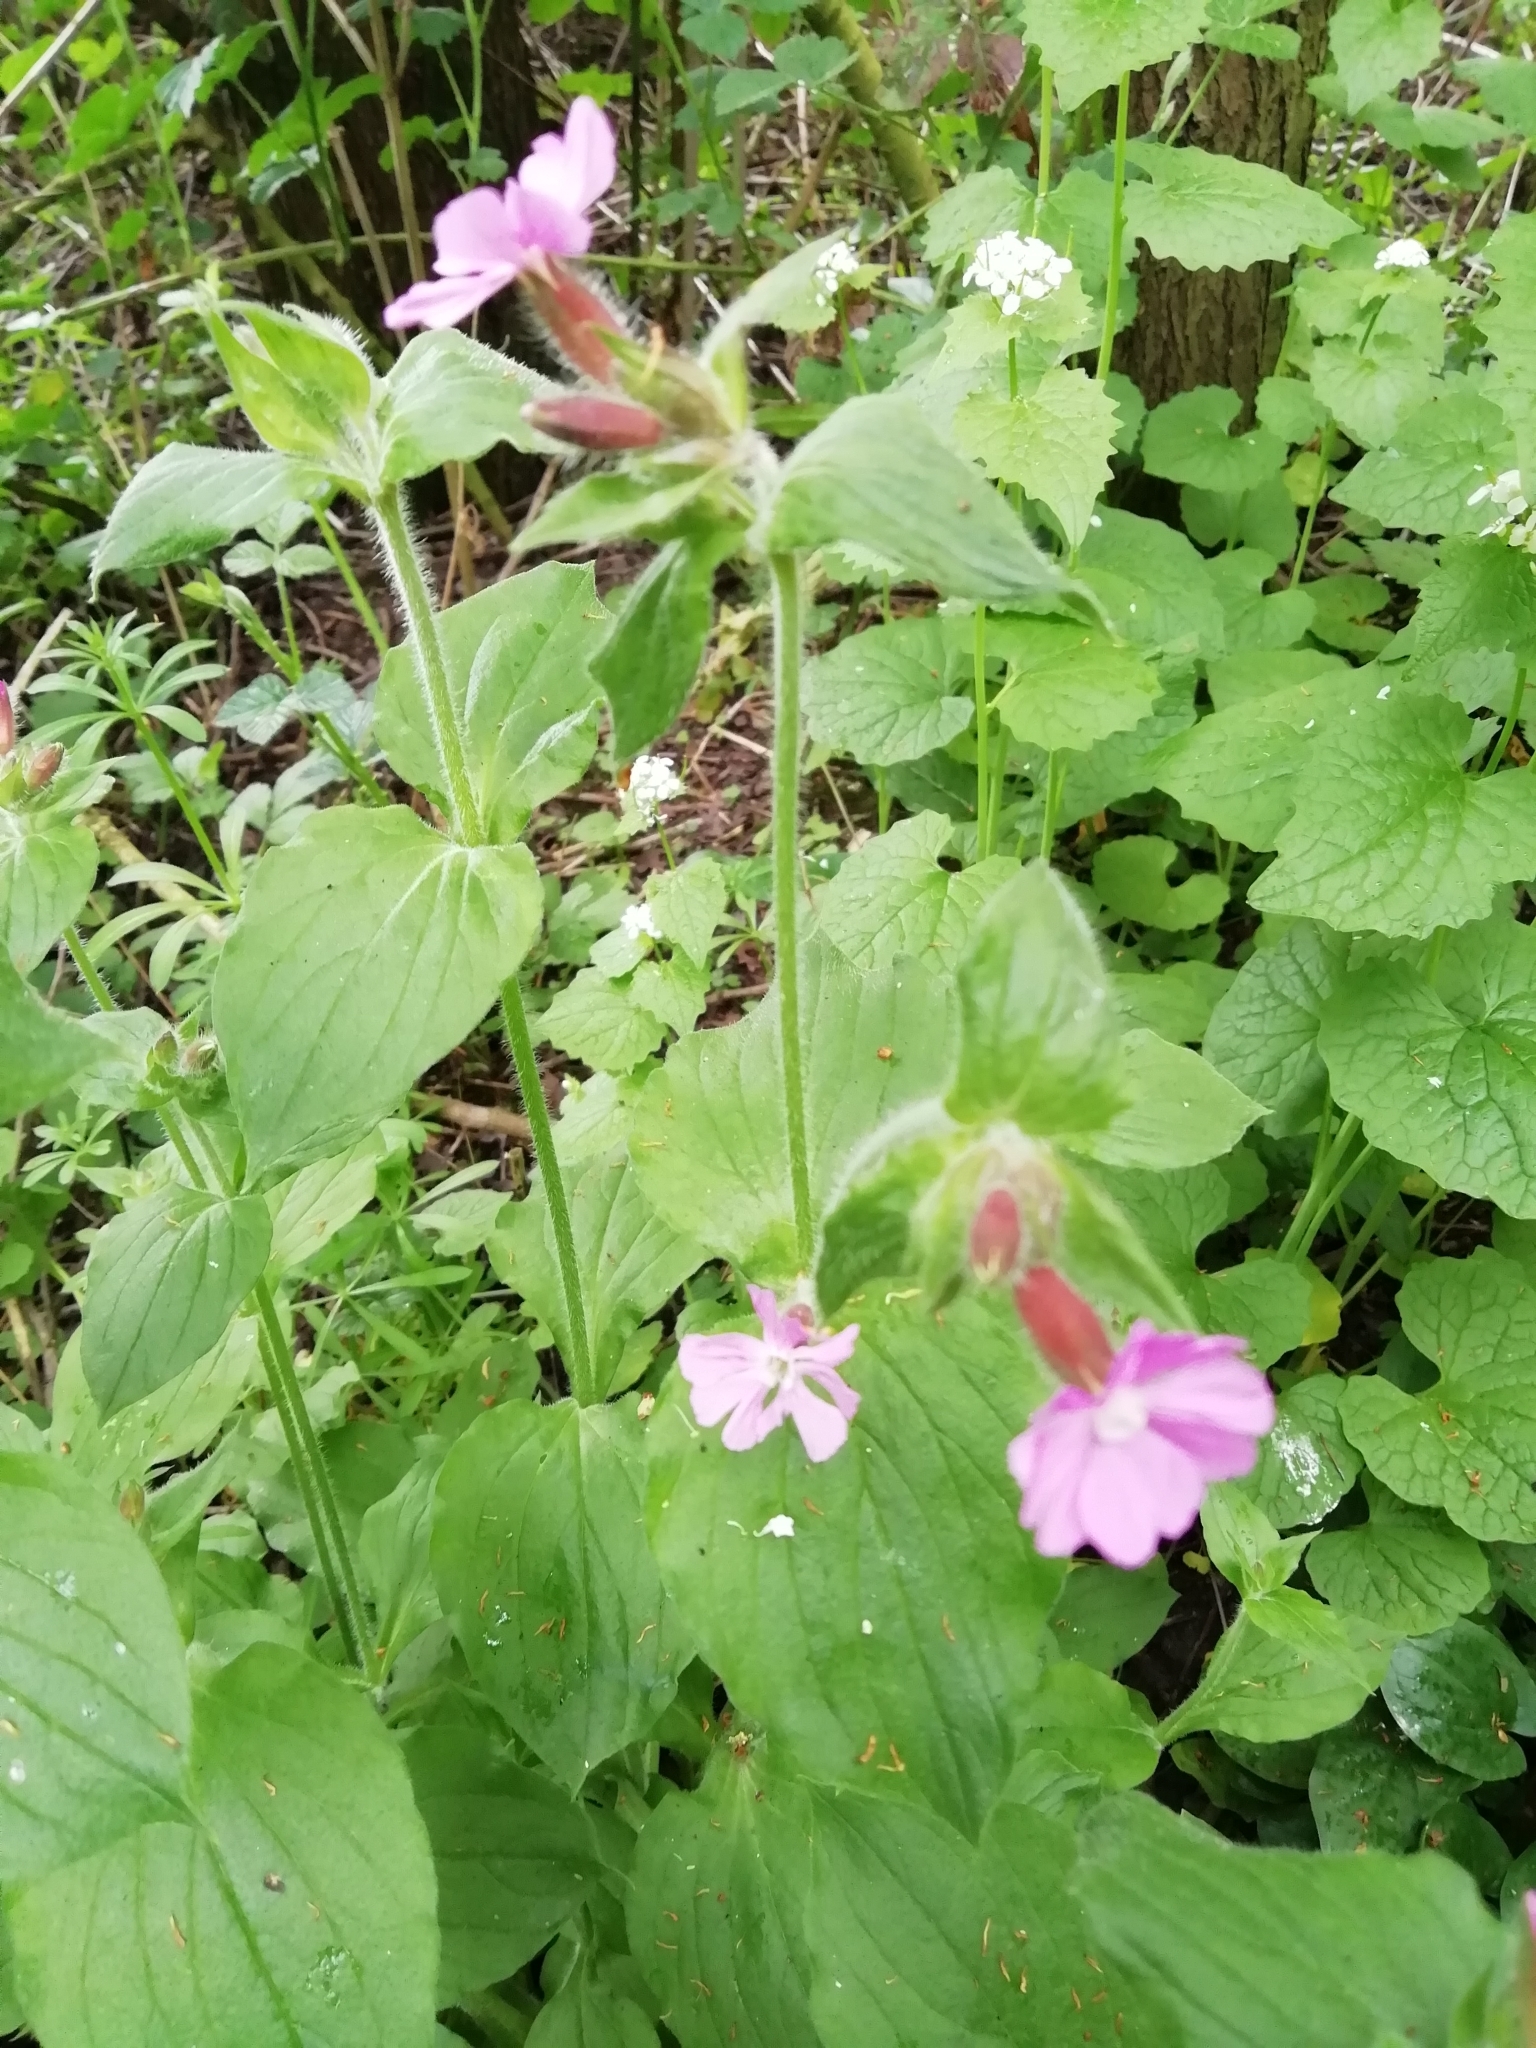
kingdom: Plantae
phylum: Tracheophyta
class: Magnoliopsida
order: Caryophyllales
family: Caryophyllaceae
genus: Silene
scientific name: Silene dioica
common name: Red campion
